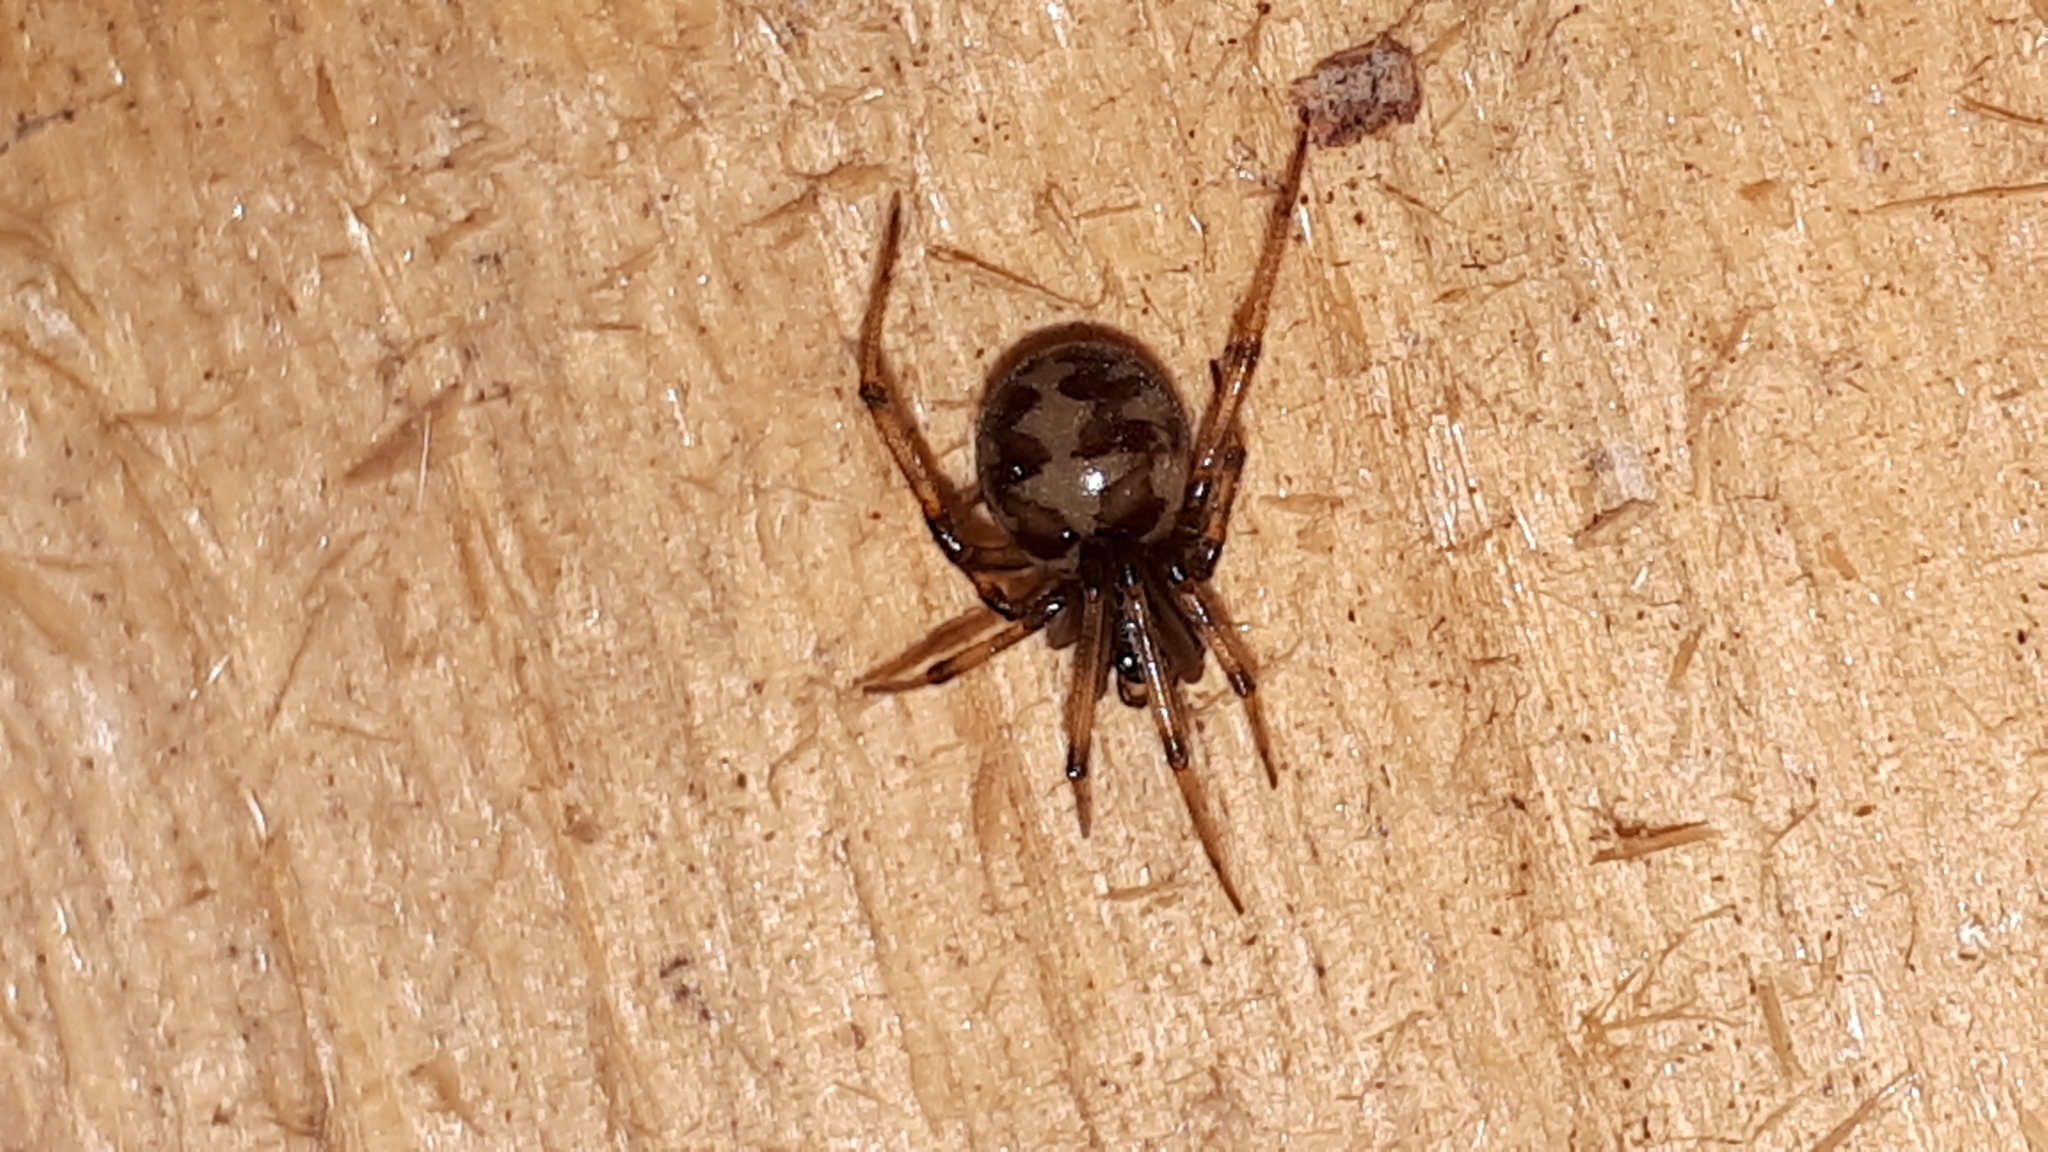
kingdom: Animalia
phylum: Arthropoda
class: Arachnida
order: Araneae
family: Theridiidae
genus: Steatoda
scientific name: Steatoda triangulosa
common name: Triangulate bud spider
